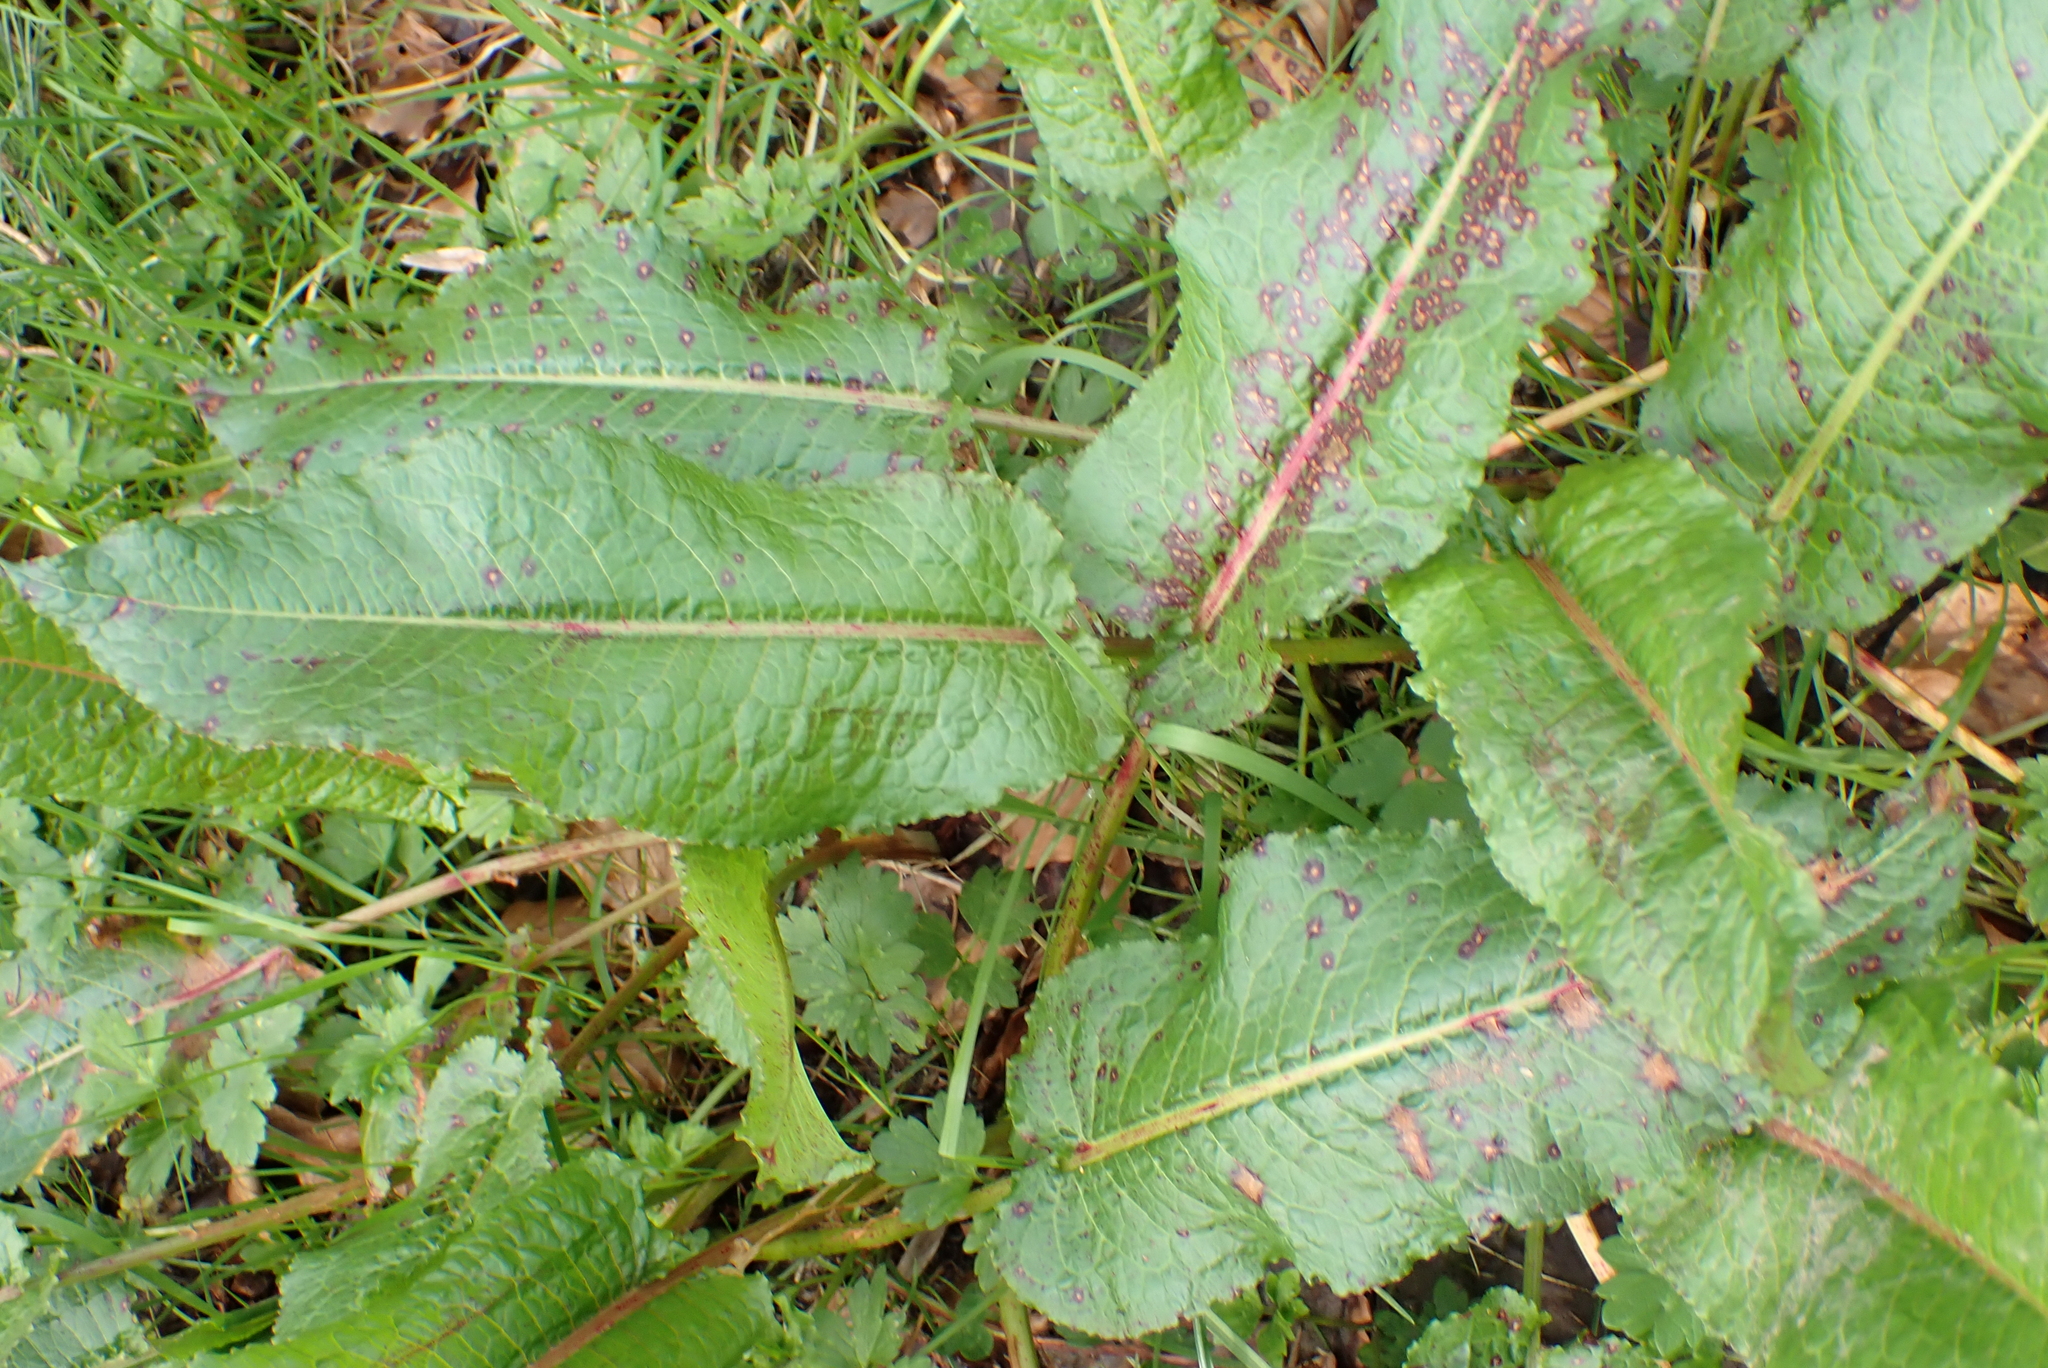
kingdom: Plantae
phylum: Tracheophyta
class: Magnoliopsida
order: Caryophyllales
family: Polygonaceae
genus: Rumex
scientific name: Rumex obtusifolius
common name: Bitter dock
